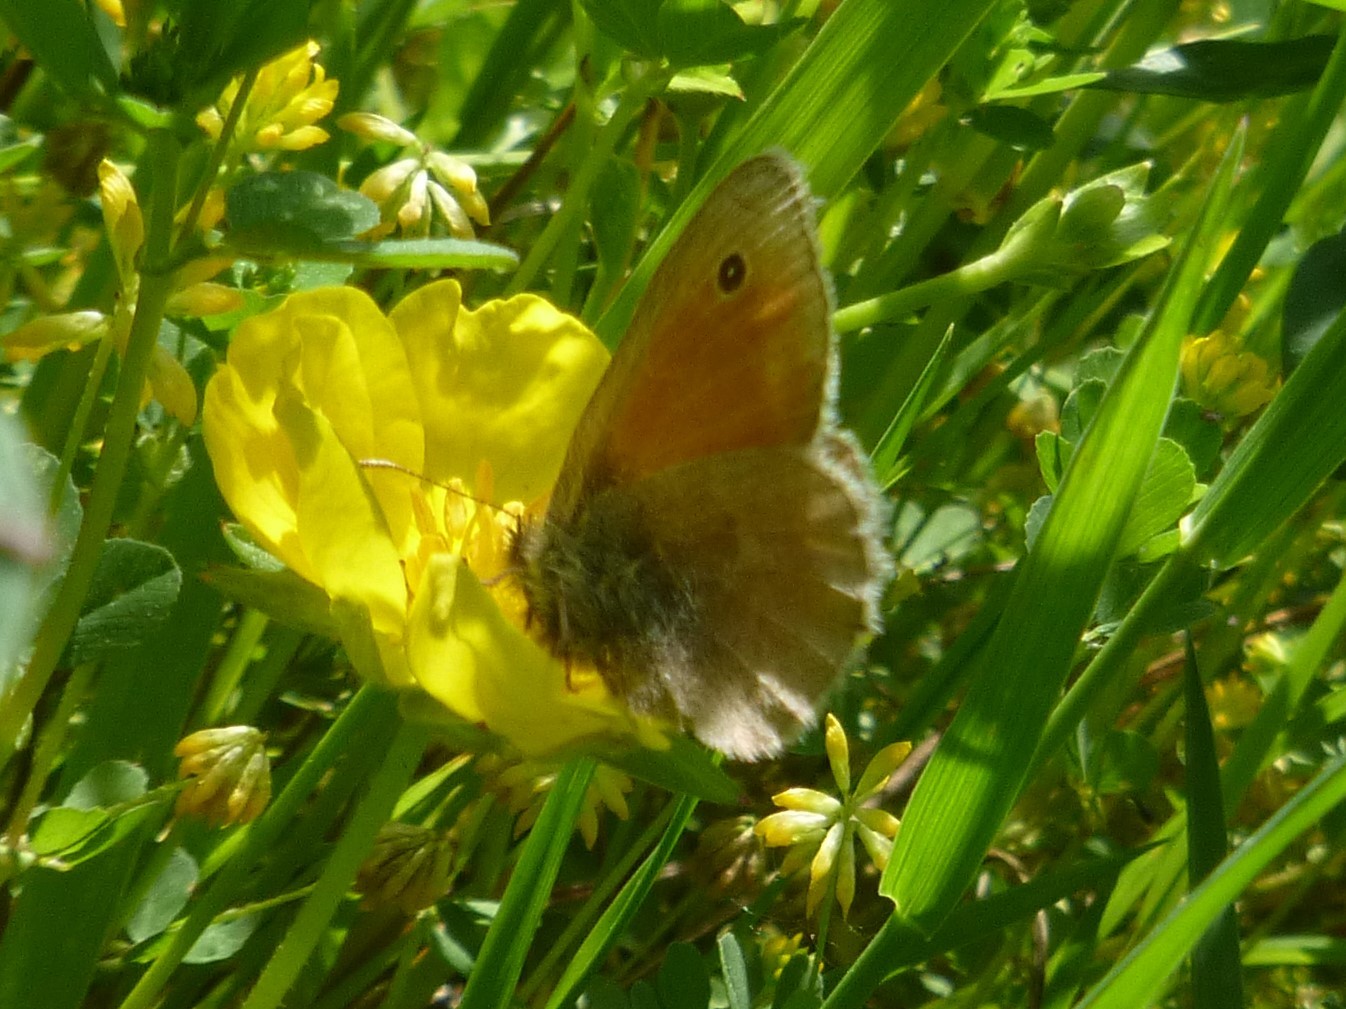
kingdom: Animalia
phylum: Arthropoda
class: Insecta
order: Lepidoptera
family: Nymphalidae
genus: Coenonympha
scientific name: Coenonympha pamphilus
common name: Small heath
